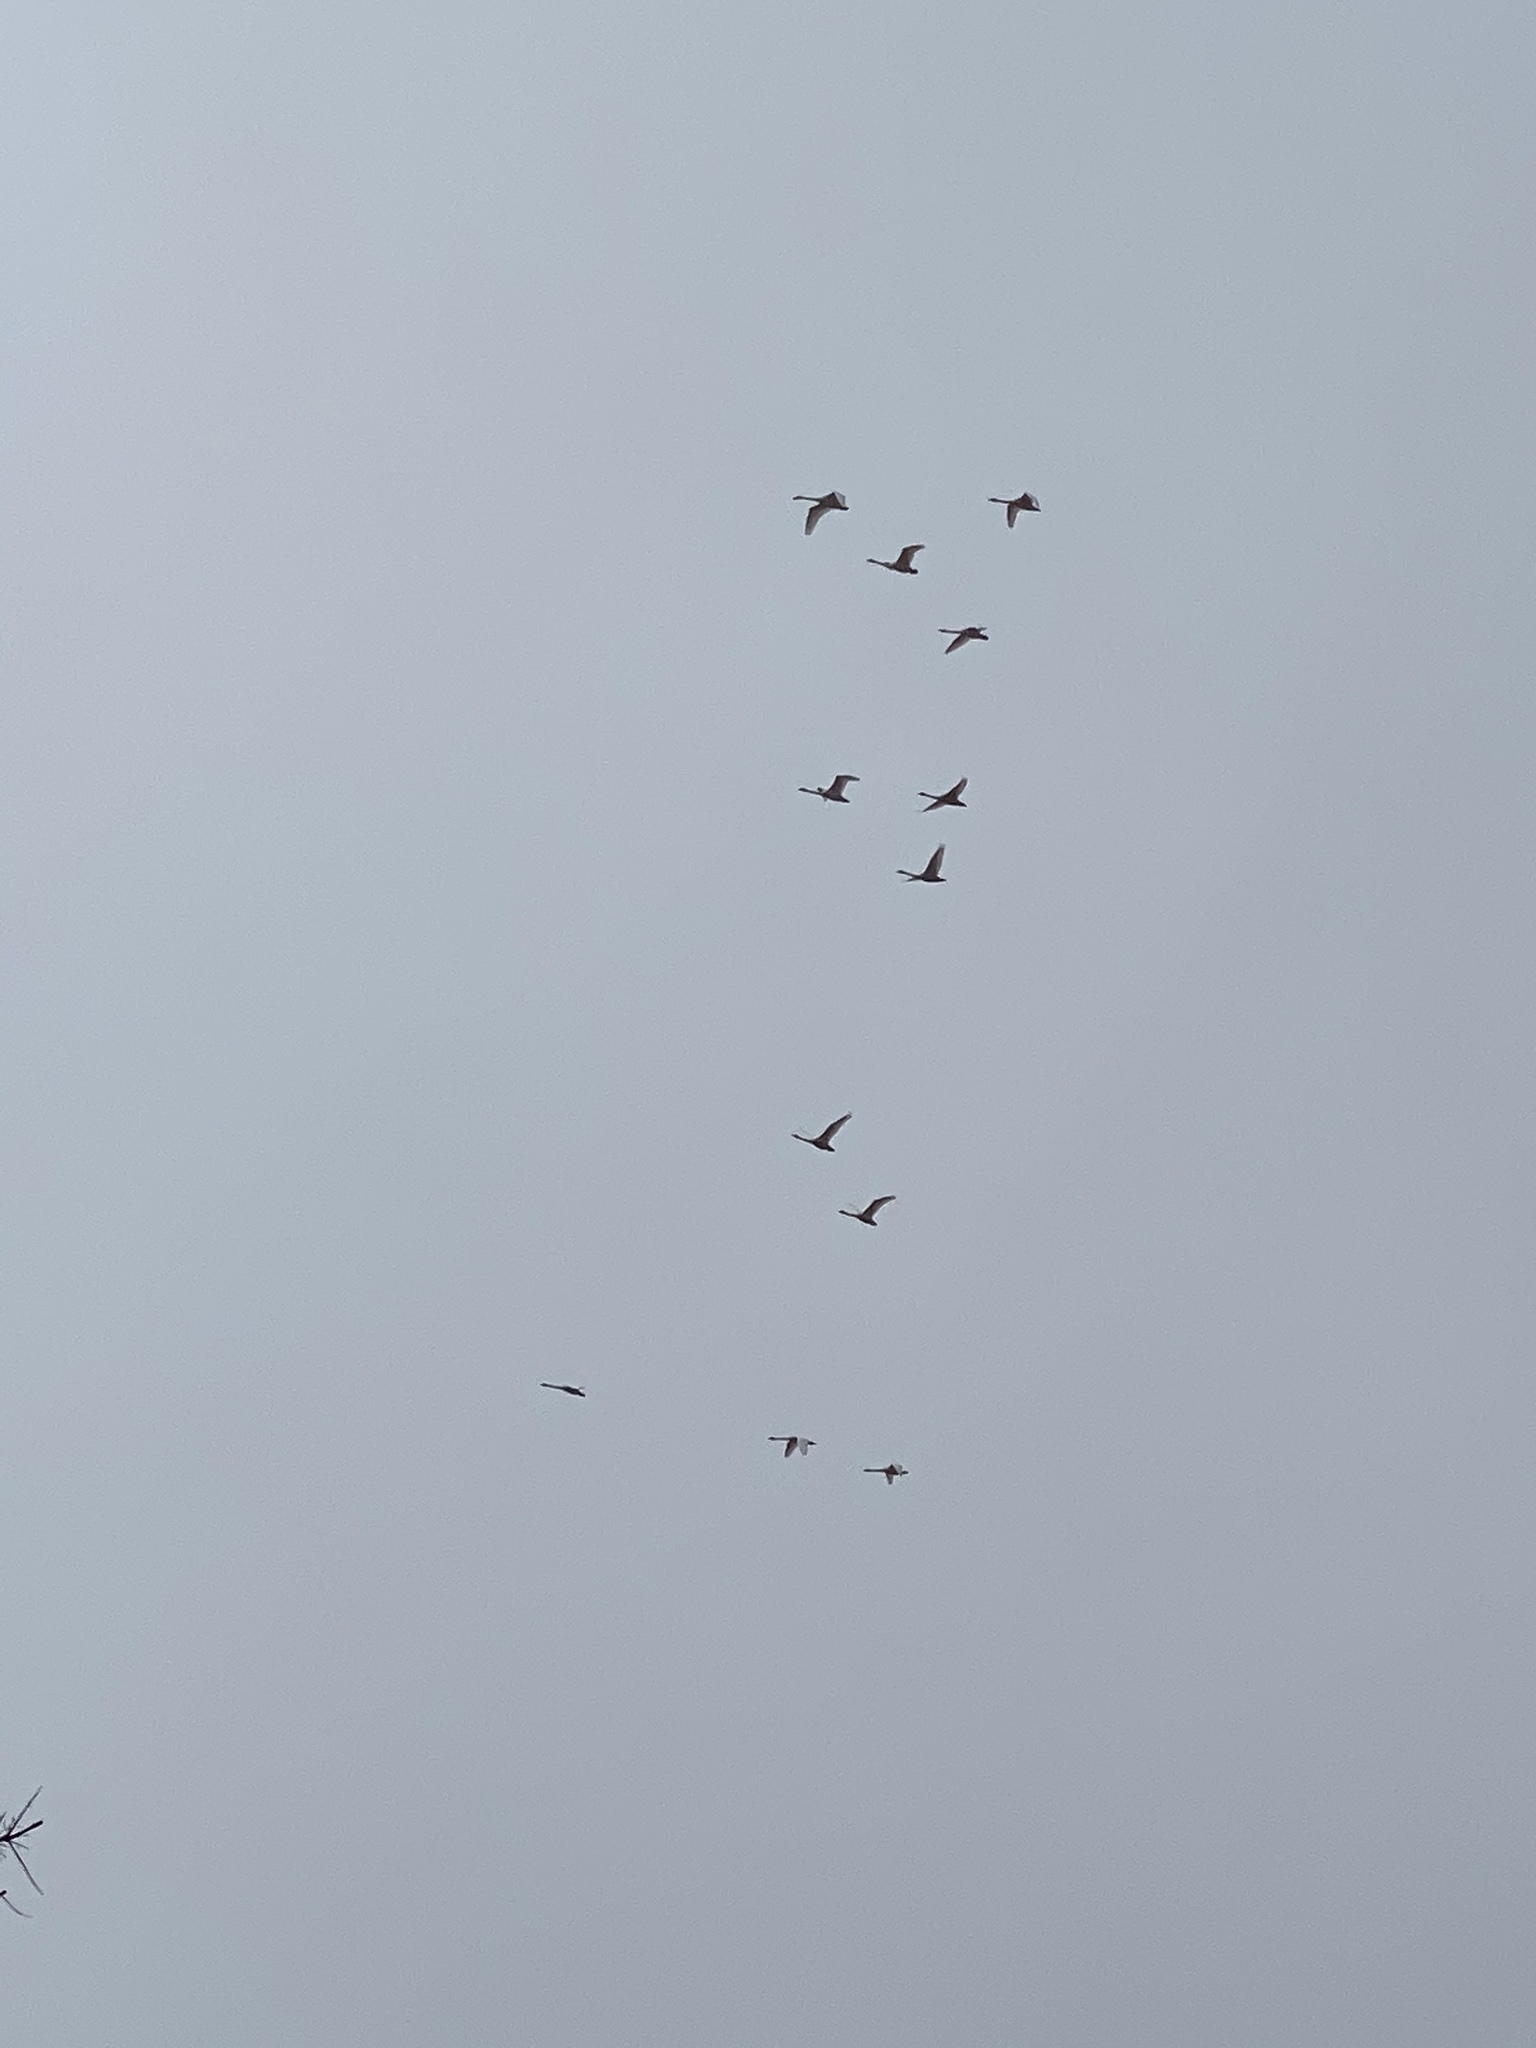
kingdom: Animalia
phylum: Chordata
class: Aves
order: Anseriformes
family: Anatidae
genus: Cygnus
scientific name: Cygnus columbianus
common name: Tundra swan
